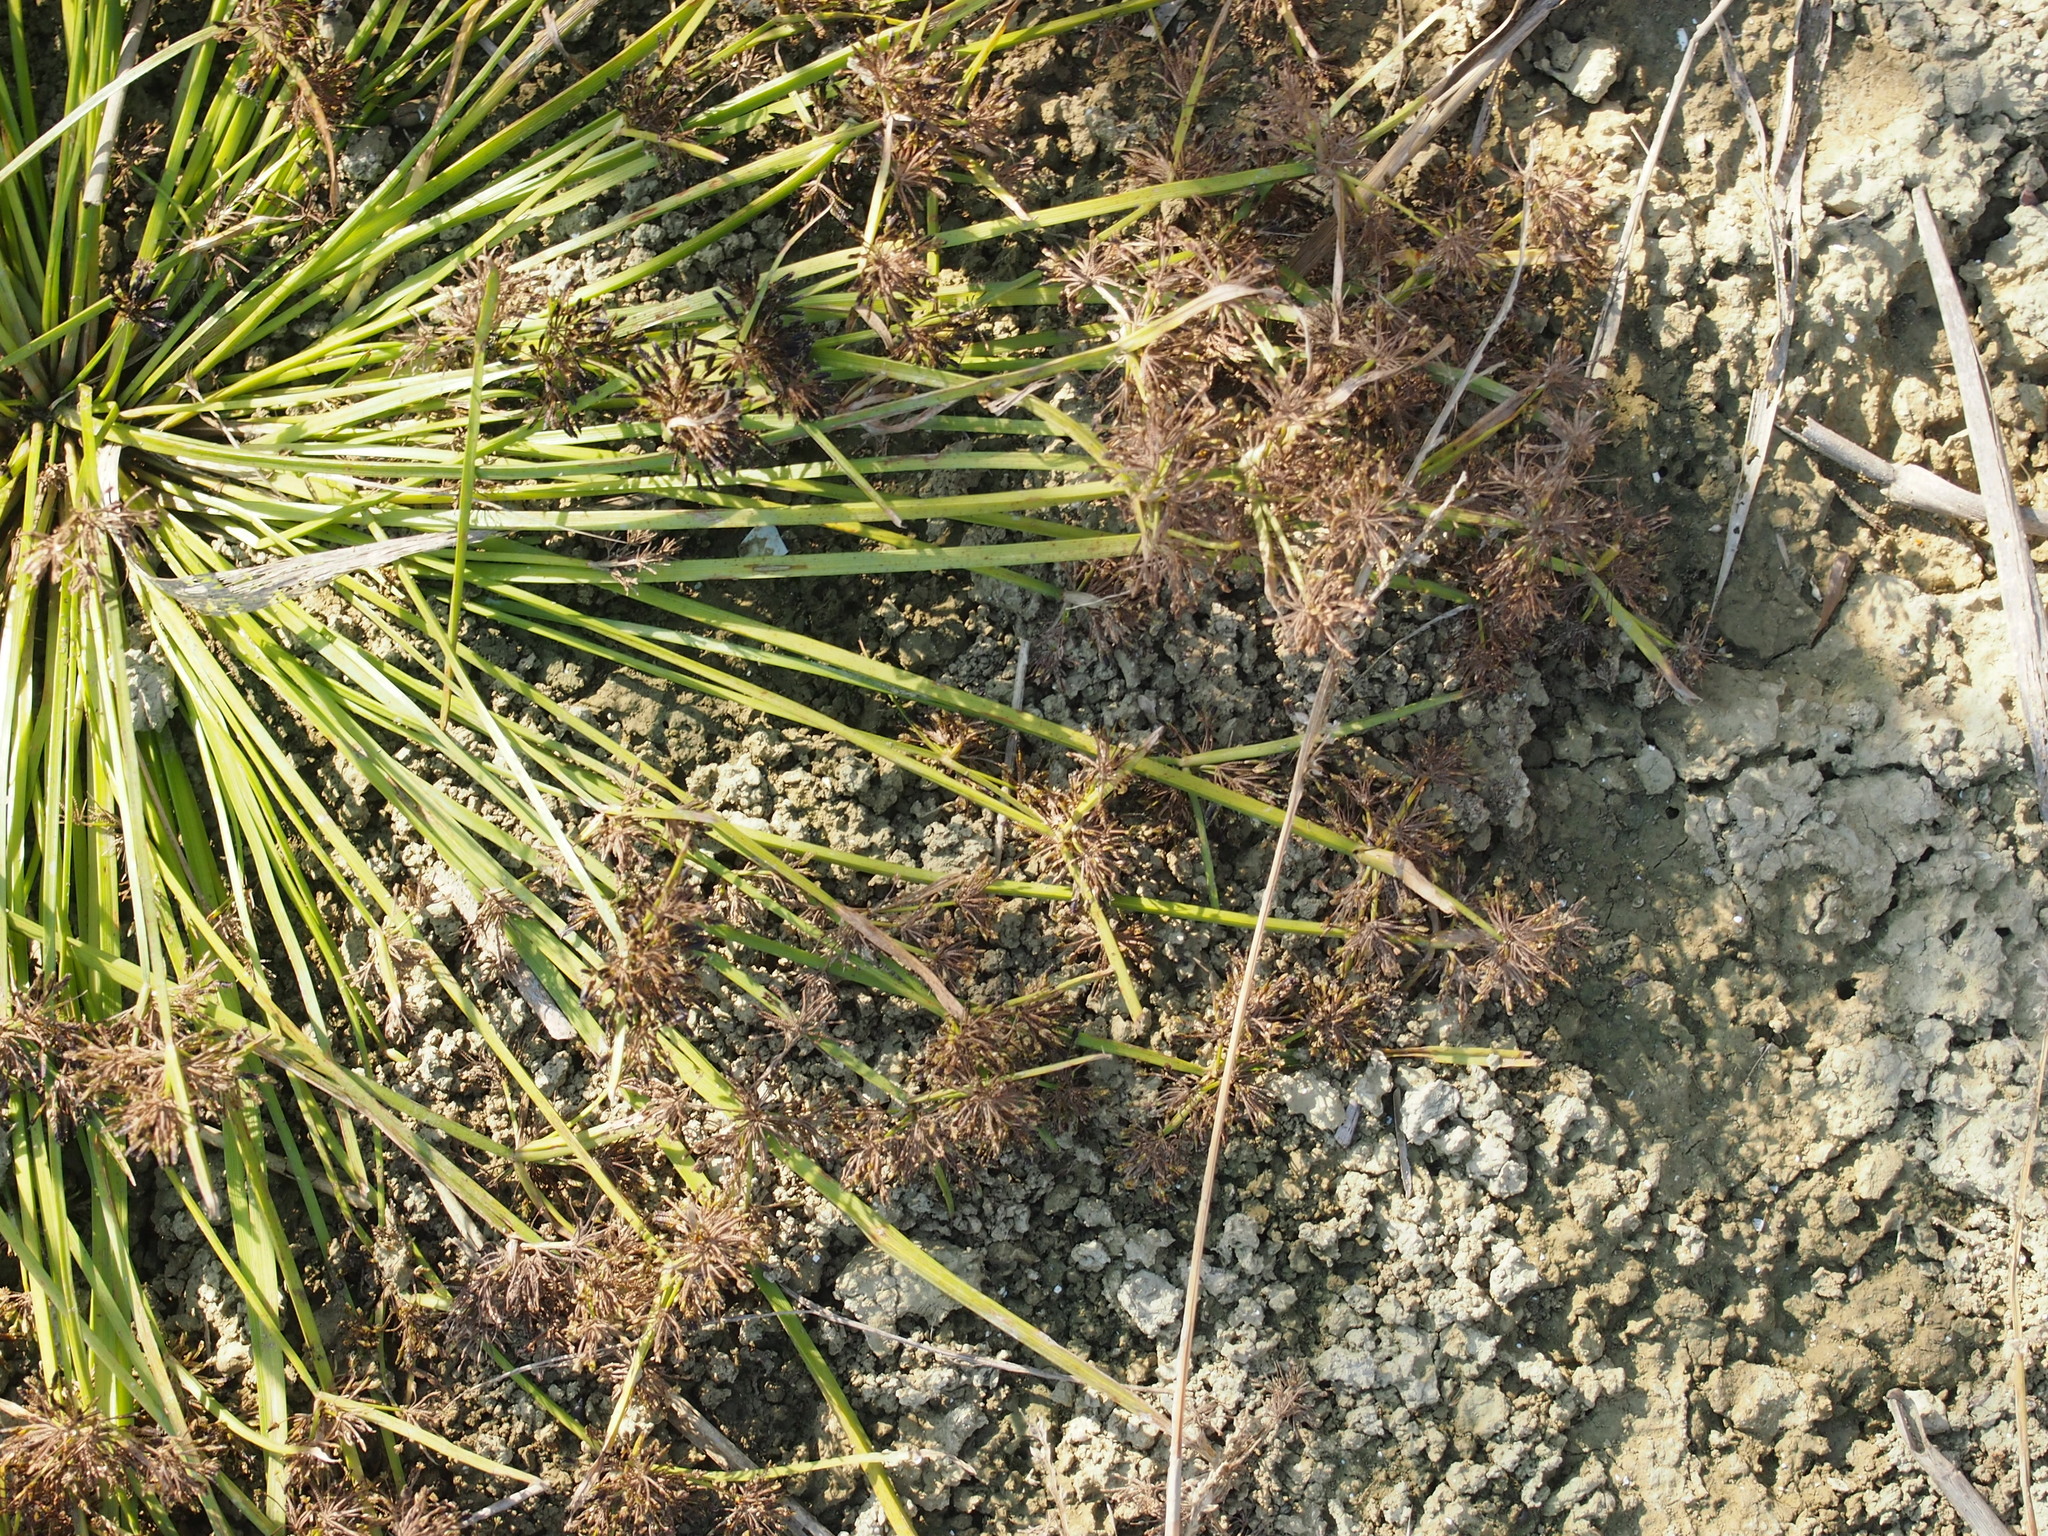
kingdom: Plantae
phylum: Tracheophyta
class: Liliopsida
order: Poales
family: Cyperaceae
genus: Cyperus
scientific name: Cyperus fuscus
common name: Brown galingale
